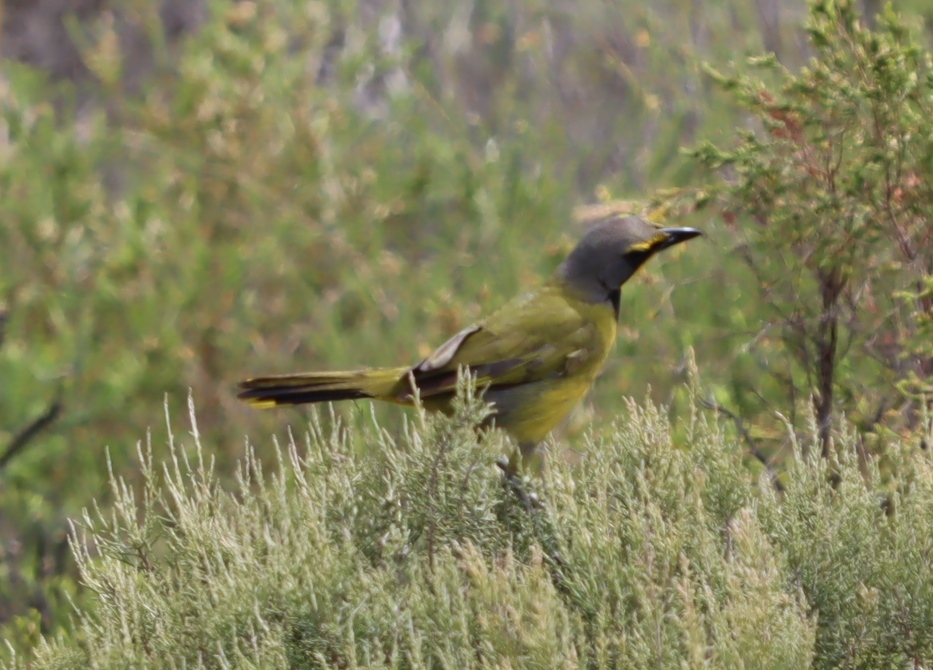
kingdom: Animalia
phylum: Chordata
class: Aves
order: Passeriformes
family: Malaconotidae
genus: Telophorus
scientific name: Telophorus zeylonus
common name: Bokmakierie
